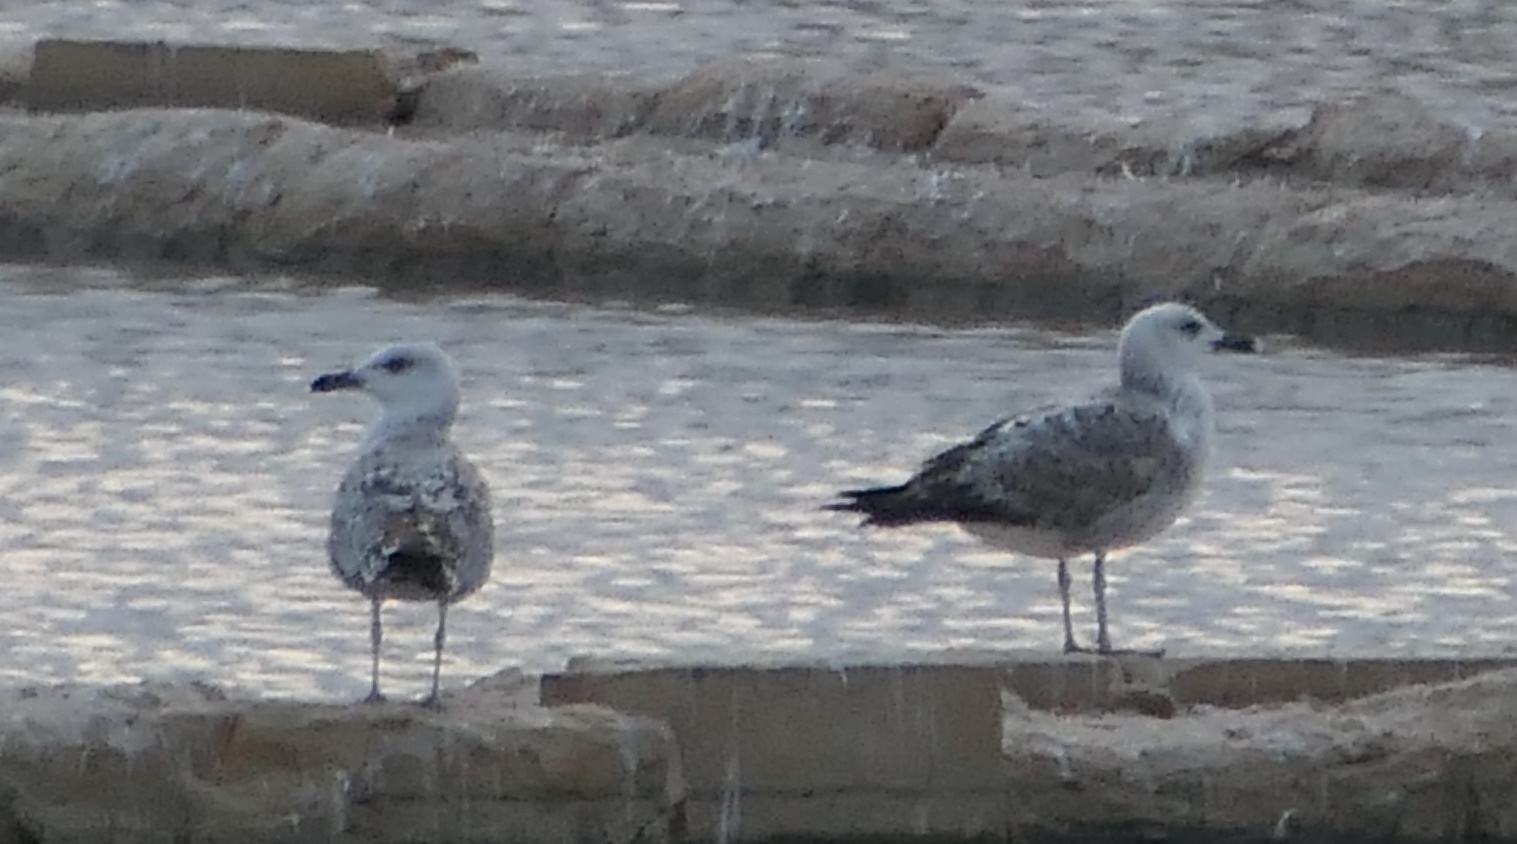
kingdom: Animalia
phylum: Chordata
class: Aves
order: Charadriiformes
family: Laridae
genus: Larus
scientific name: Larus michahellis
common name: Yellow-legged gull
